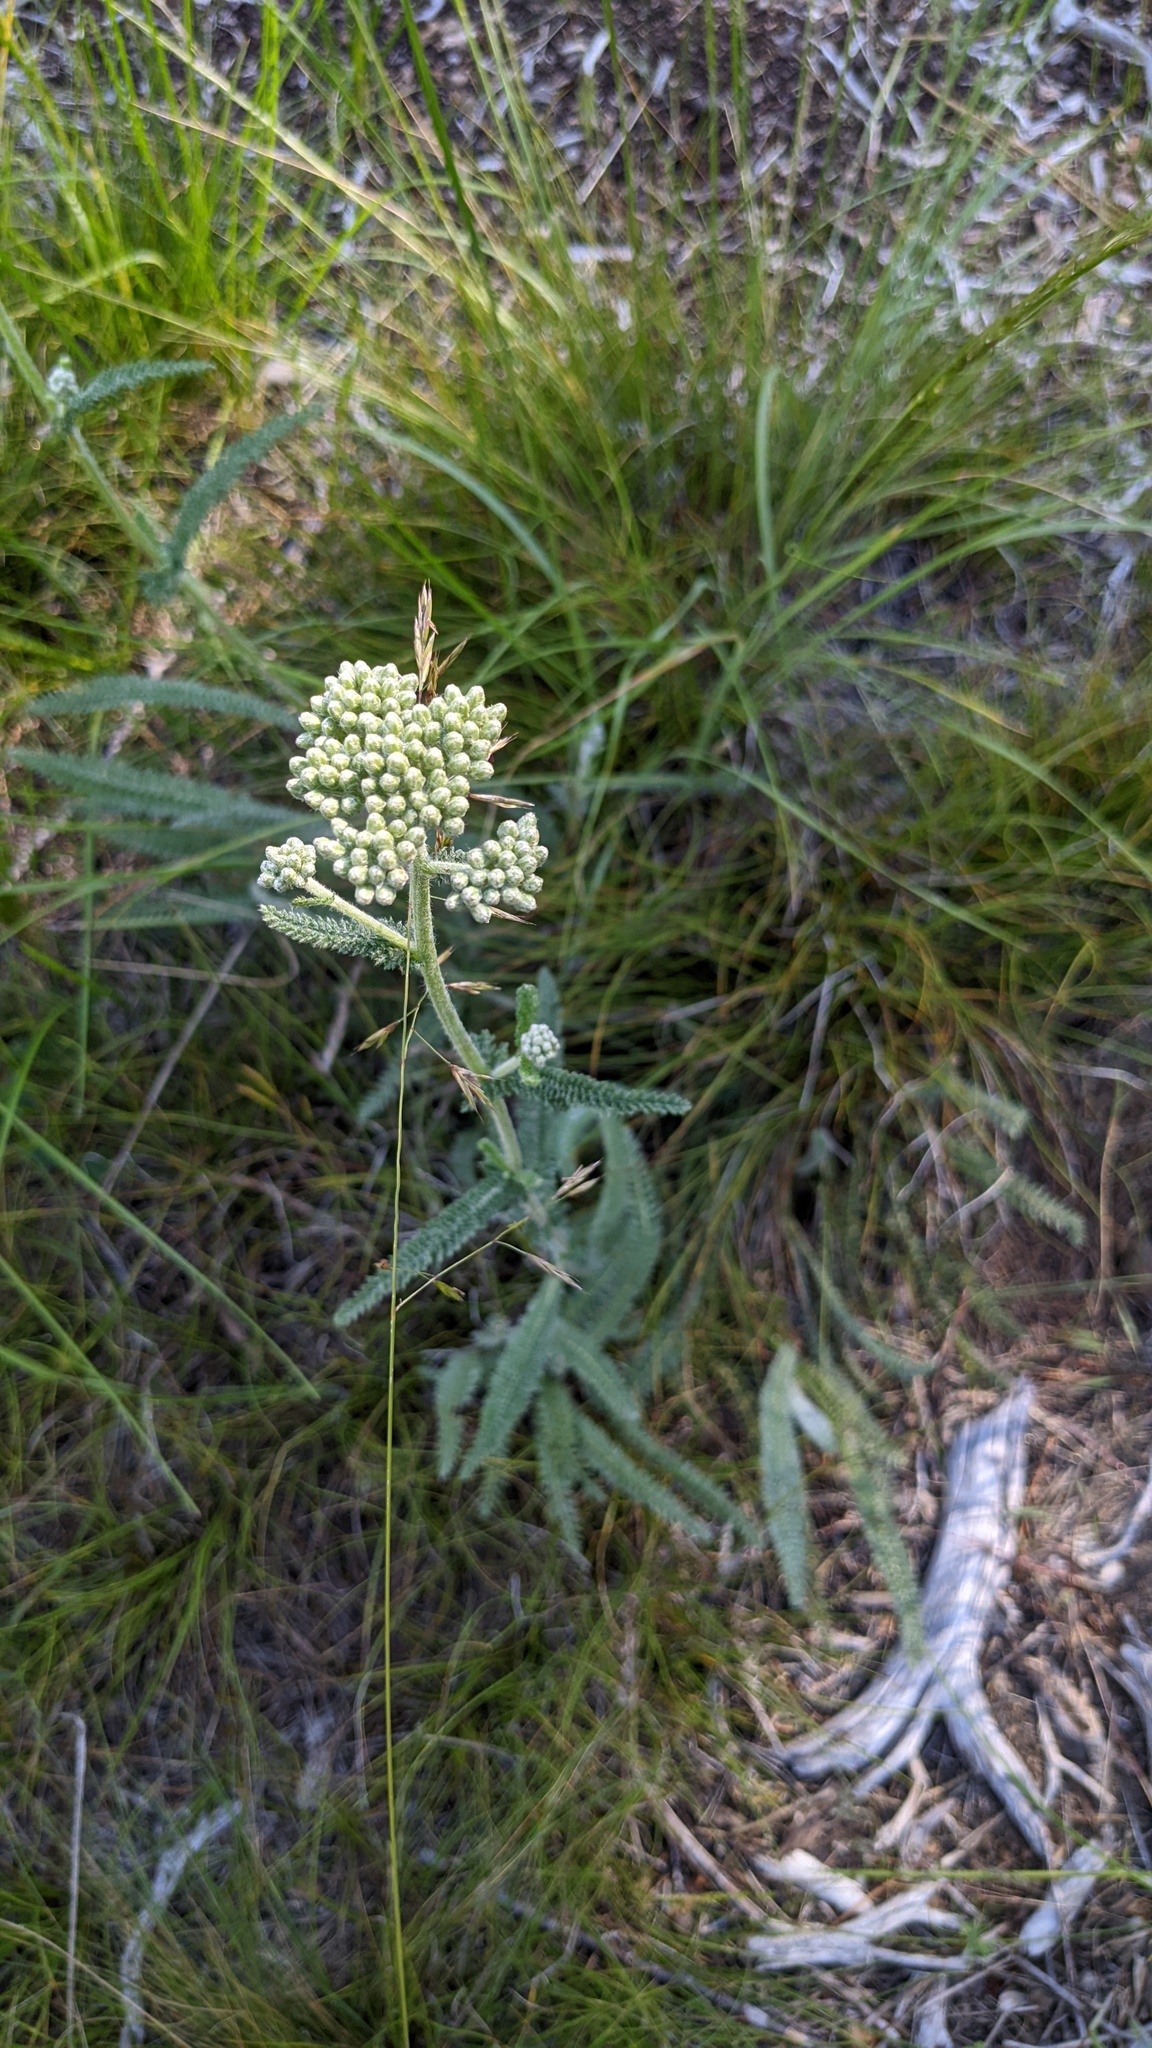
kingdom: Plantae
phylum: Tracheophyta
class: Magnoliopsida
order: Asterales
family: Asteraceae
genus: Achillea
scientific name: Achillea millefolium
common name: Yarrow
